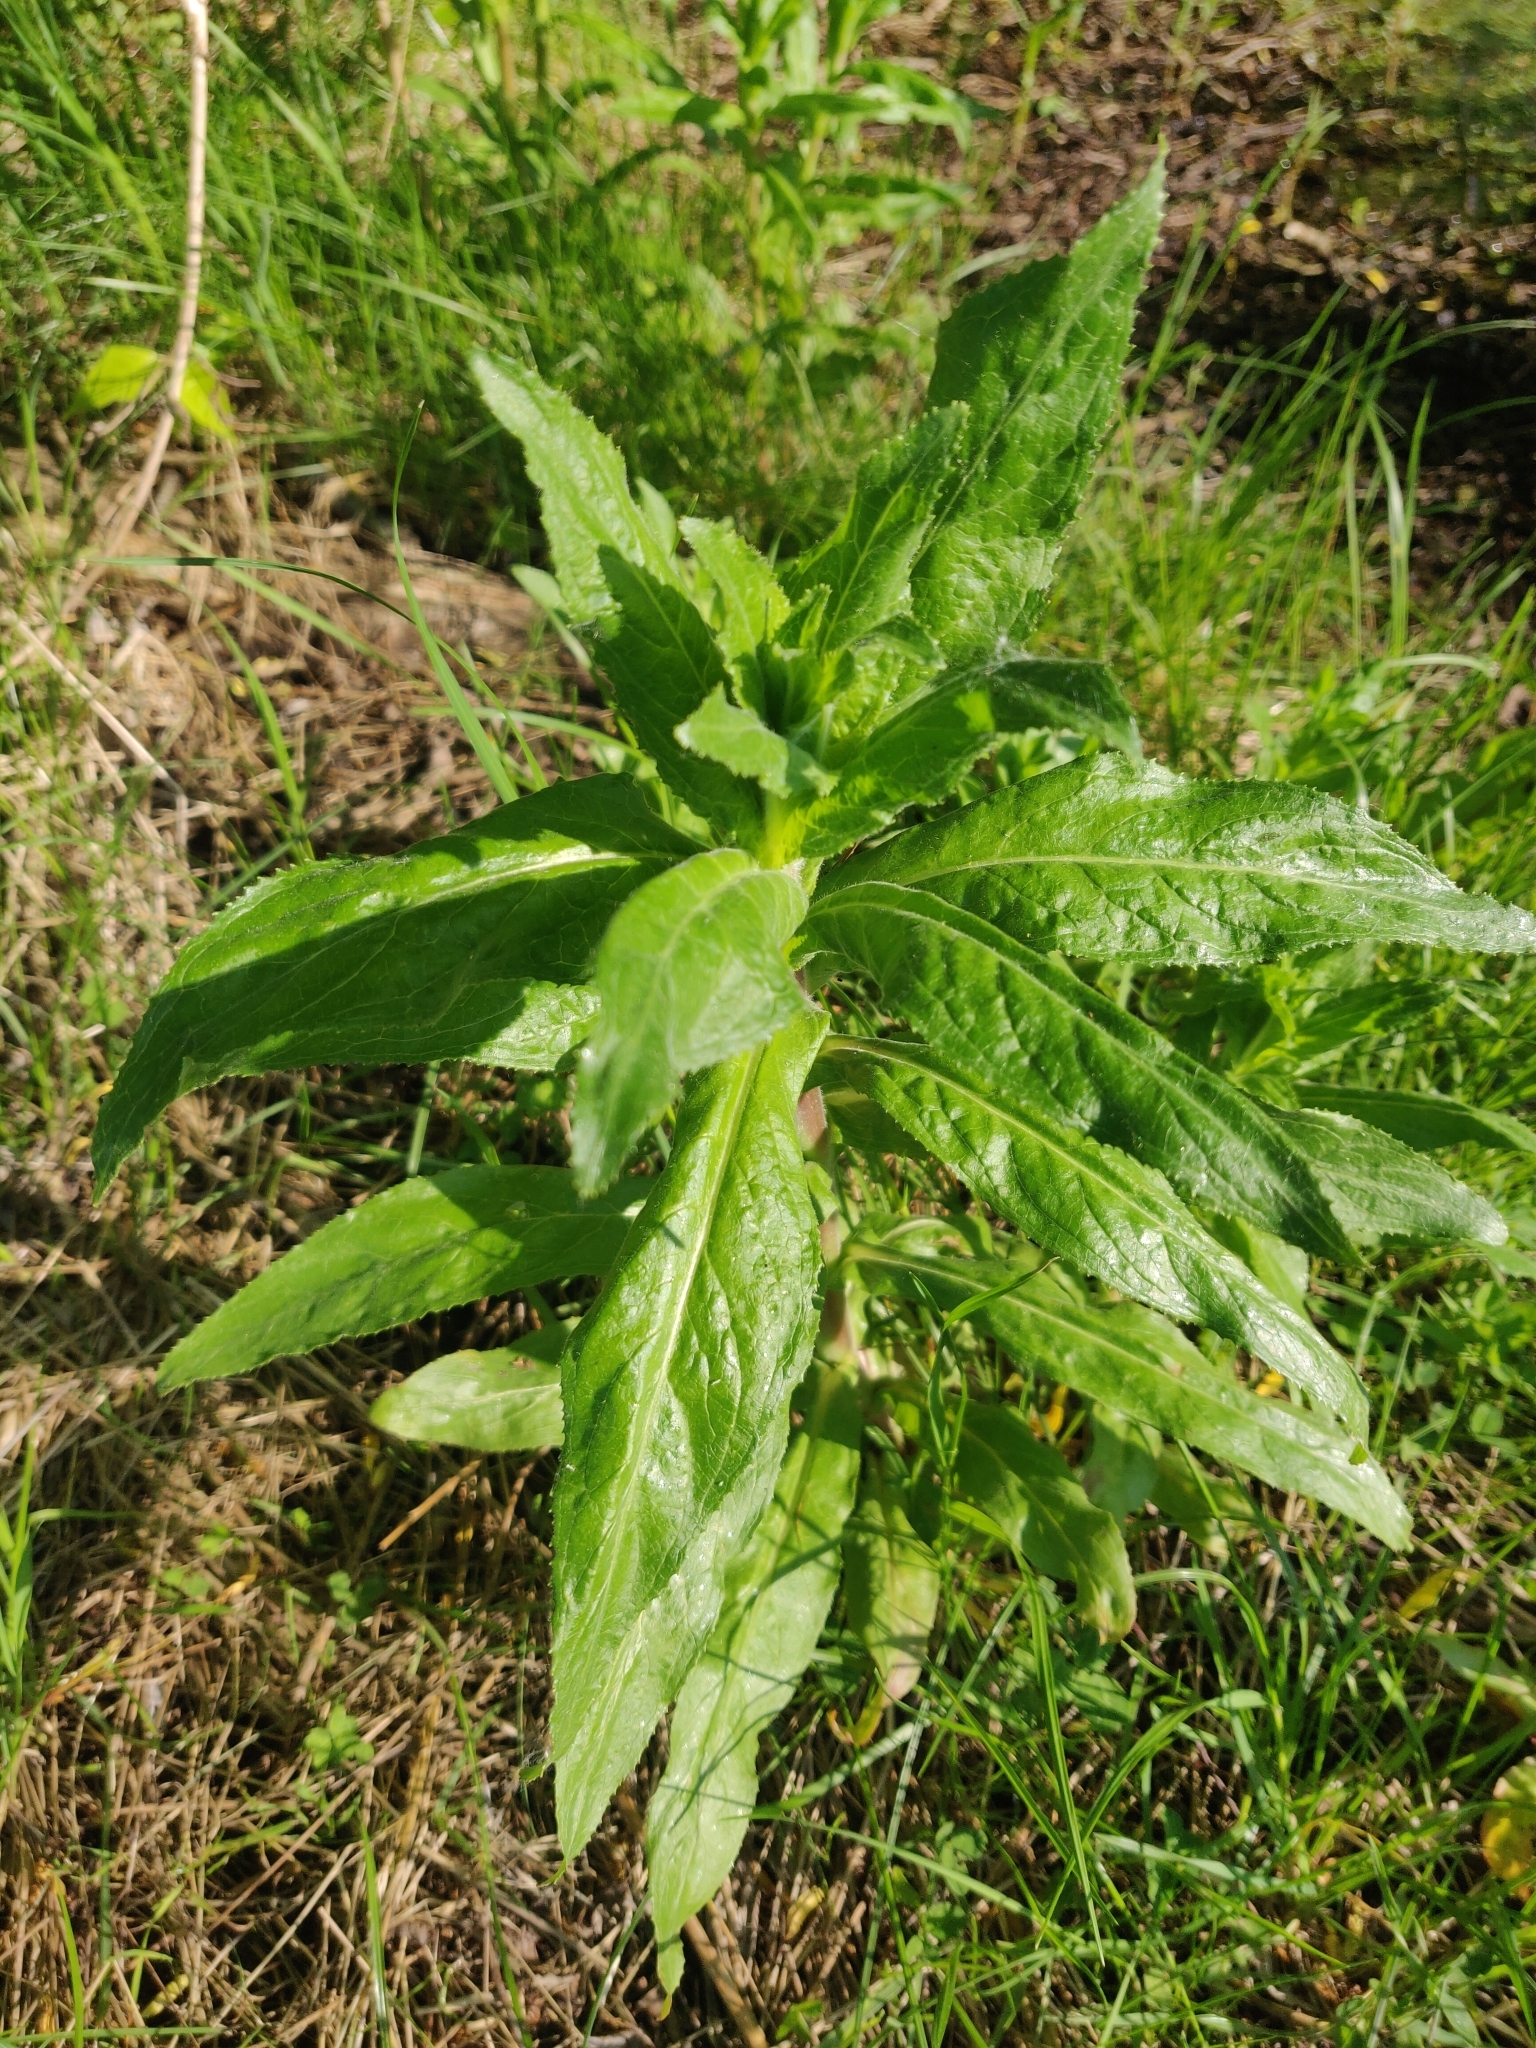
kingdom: Plantae
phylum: Tracheophyta
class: Magnoliopsida
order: Myrtales
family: Onagraceae
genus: Epilobium
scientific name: Epilobium hirsutum
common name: Great willowherb
